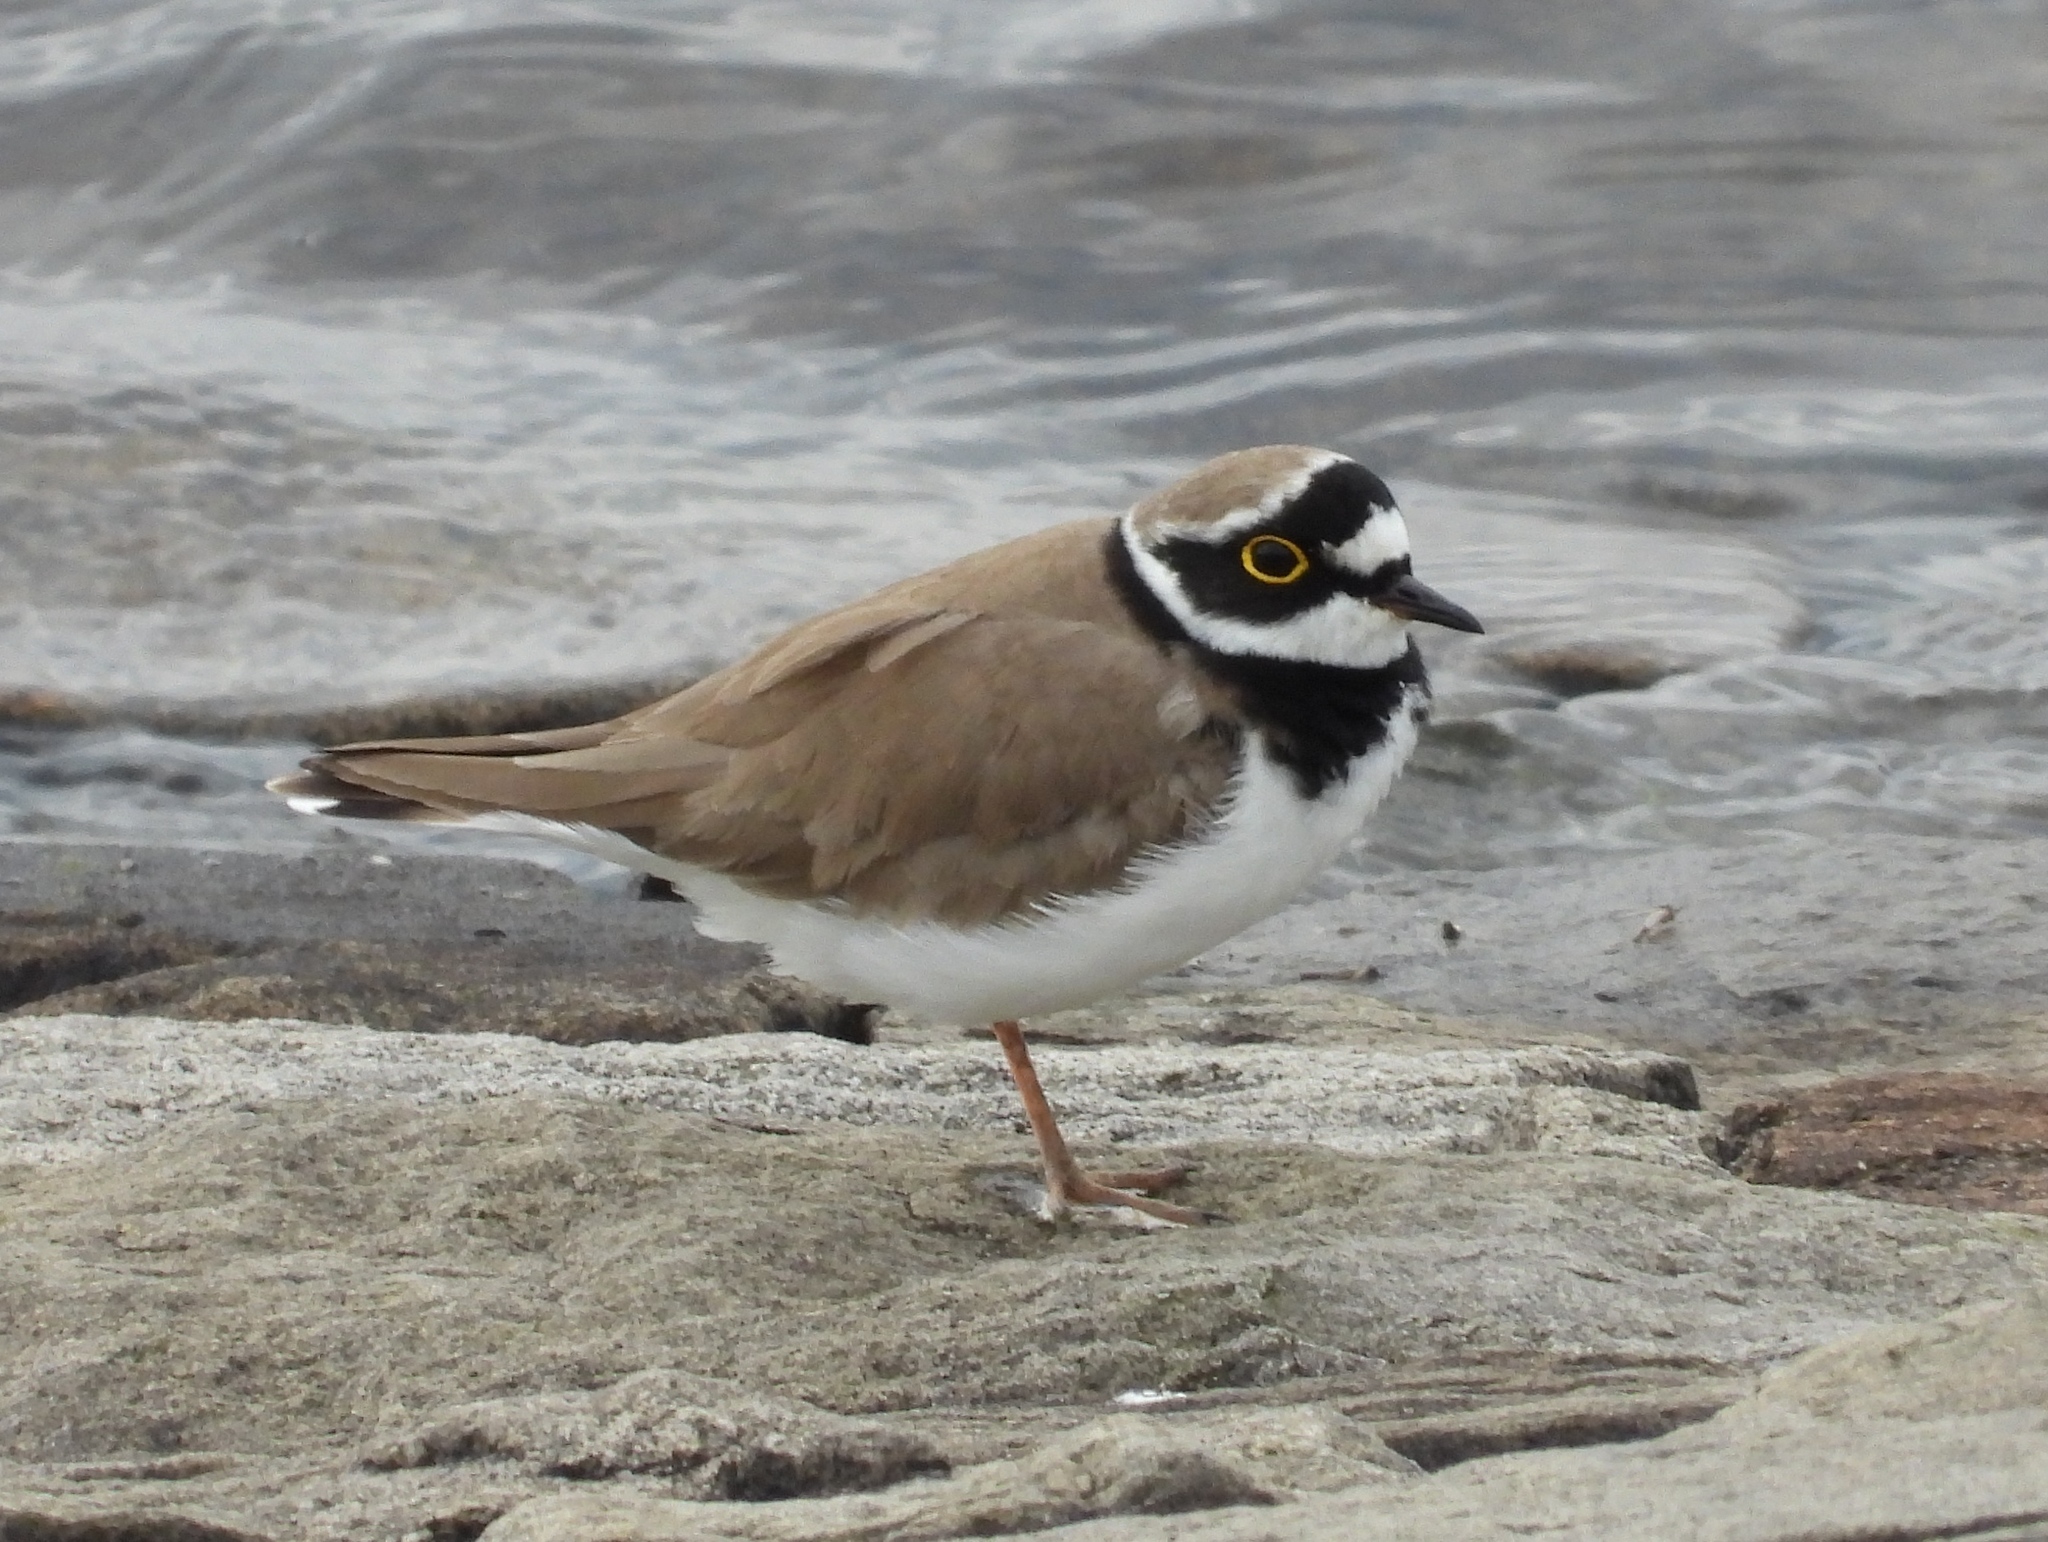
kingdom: Animalia
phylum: Chordata
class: Aves
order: Charadriiformes
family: Charadriidae
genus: Charadrius
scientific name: Charadrius dubius
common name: Little ringed plover
